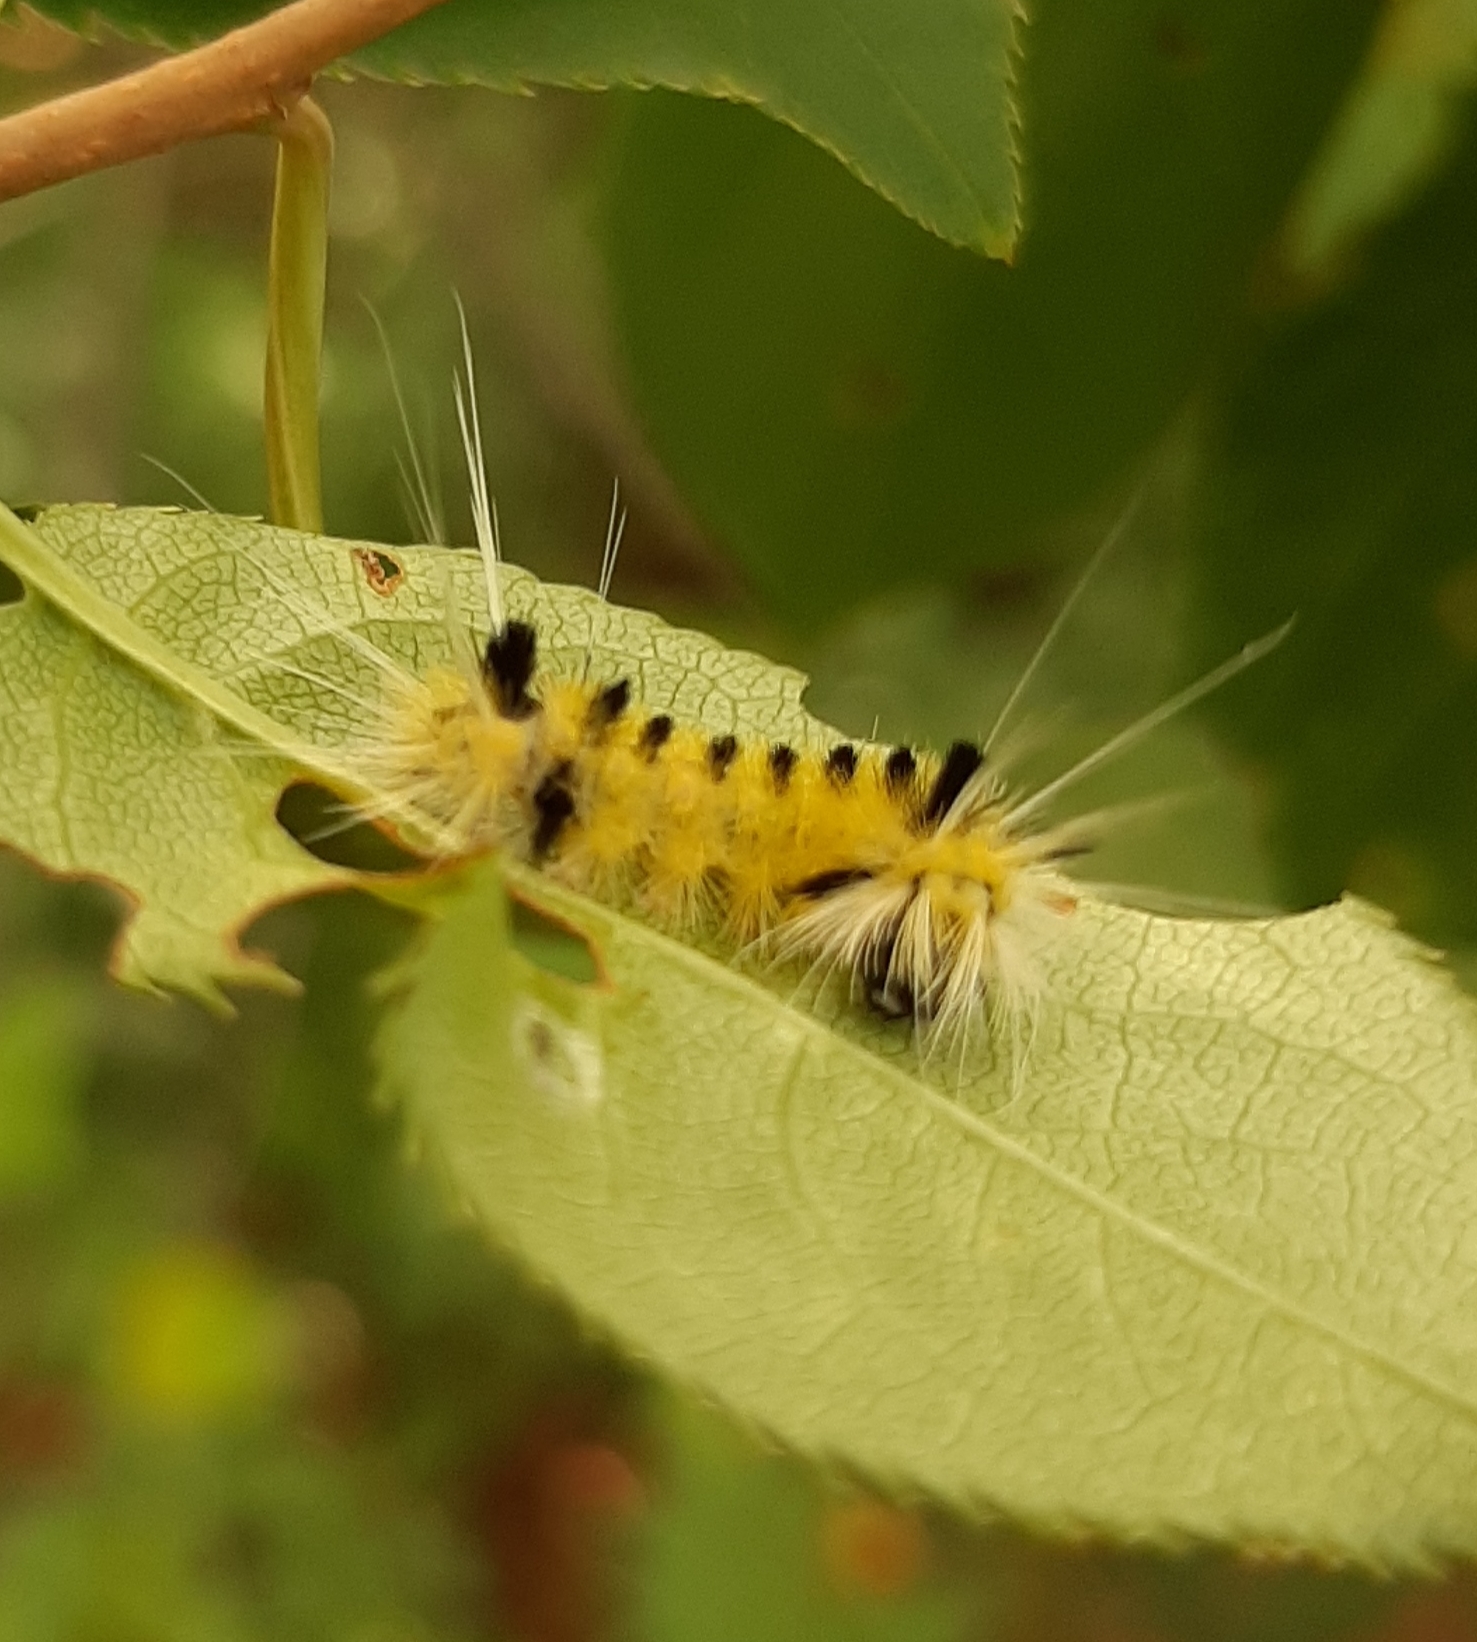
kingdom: Animalia
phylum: Arthropoda
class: Insecta
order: Lepidoptera
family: Erebidae
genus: Lophocampa
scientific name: Lophocampa maculata
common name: Spotted tussock moth
